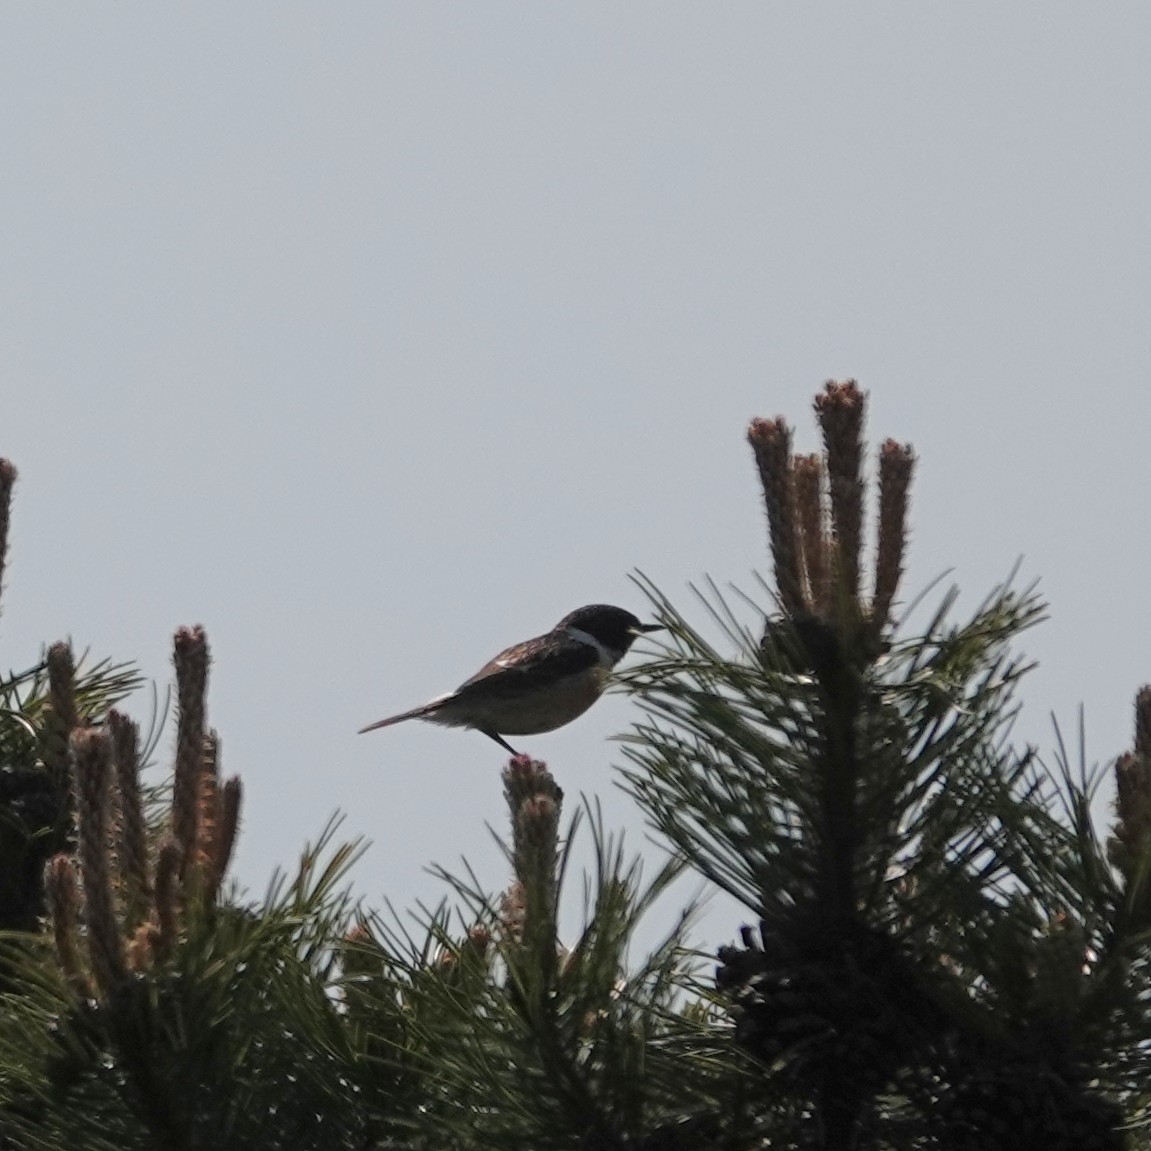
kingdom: Animalia
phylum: Chordata
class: Aves
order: Passeriformes
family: Muscicapidae
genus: Saxicola
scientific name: Saxicola rubicola
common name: European stonechat
